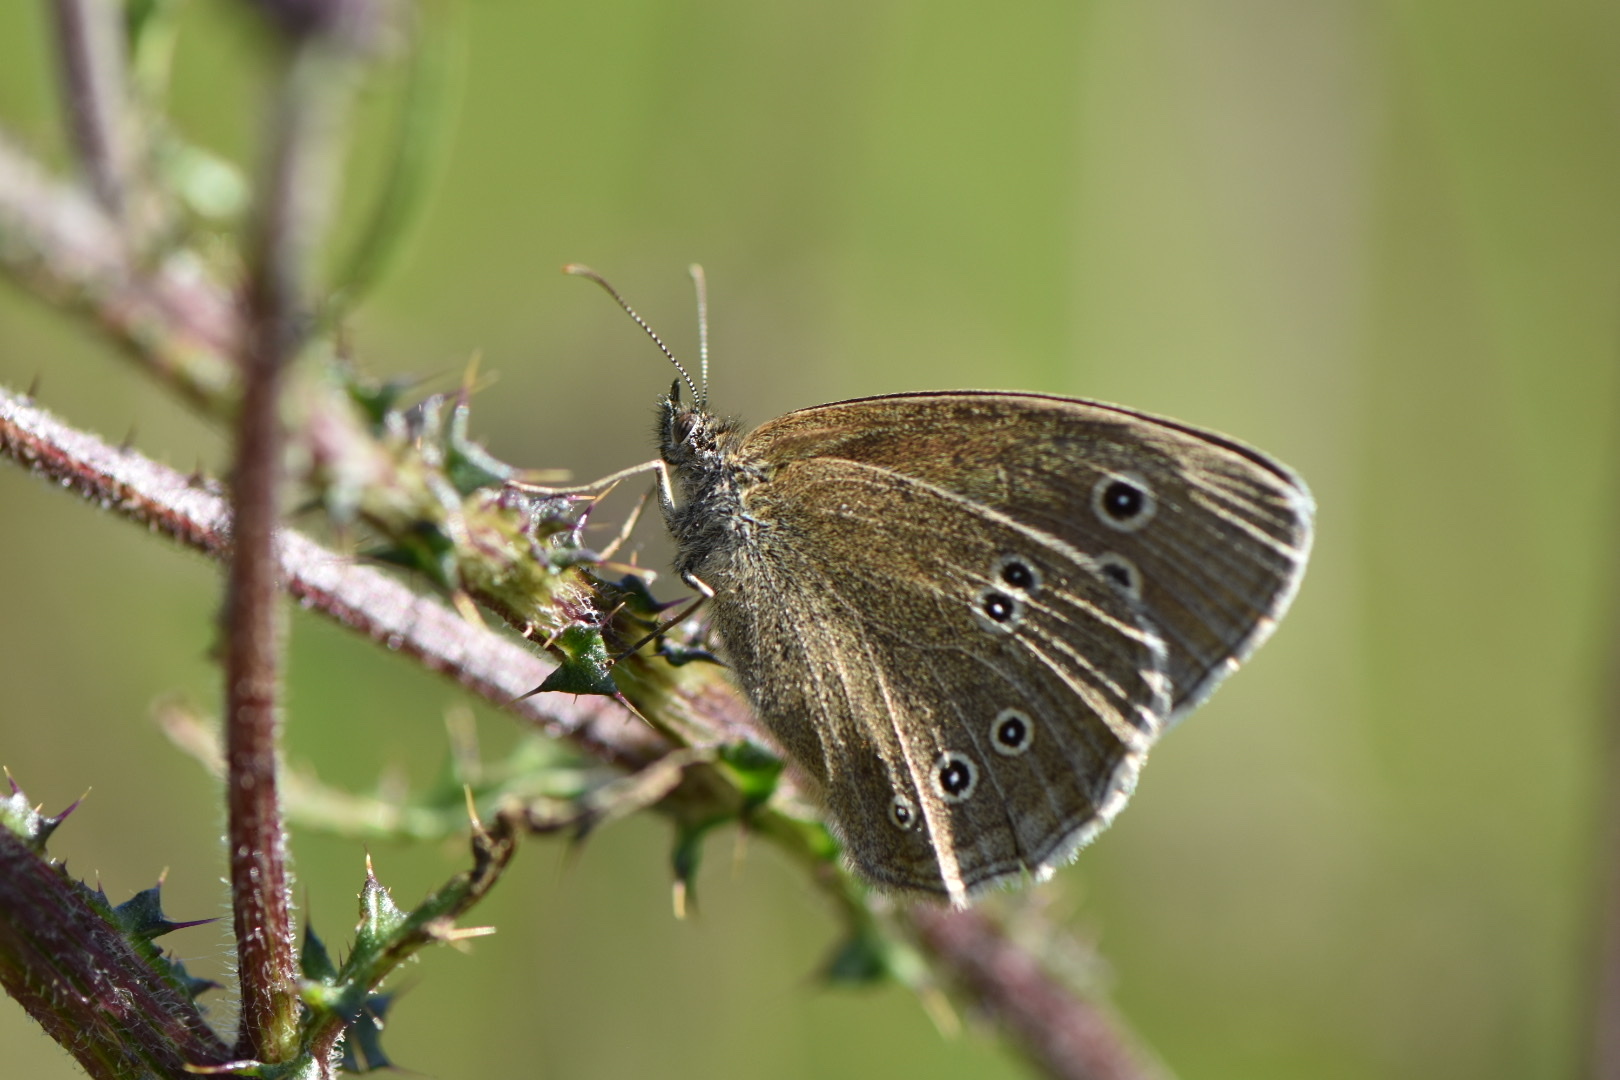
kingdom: Animalia
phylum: Arthropoda
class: Insecta
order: Lepidoptera
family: Nymphalidae
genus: Aphantopus
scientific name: Aphantopus hyperantus
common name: Ringlet
